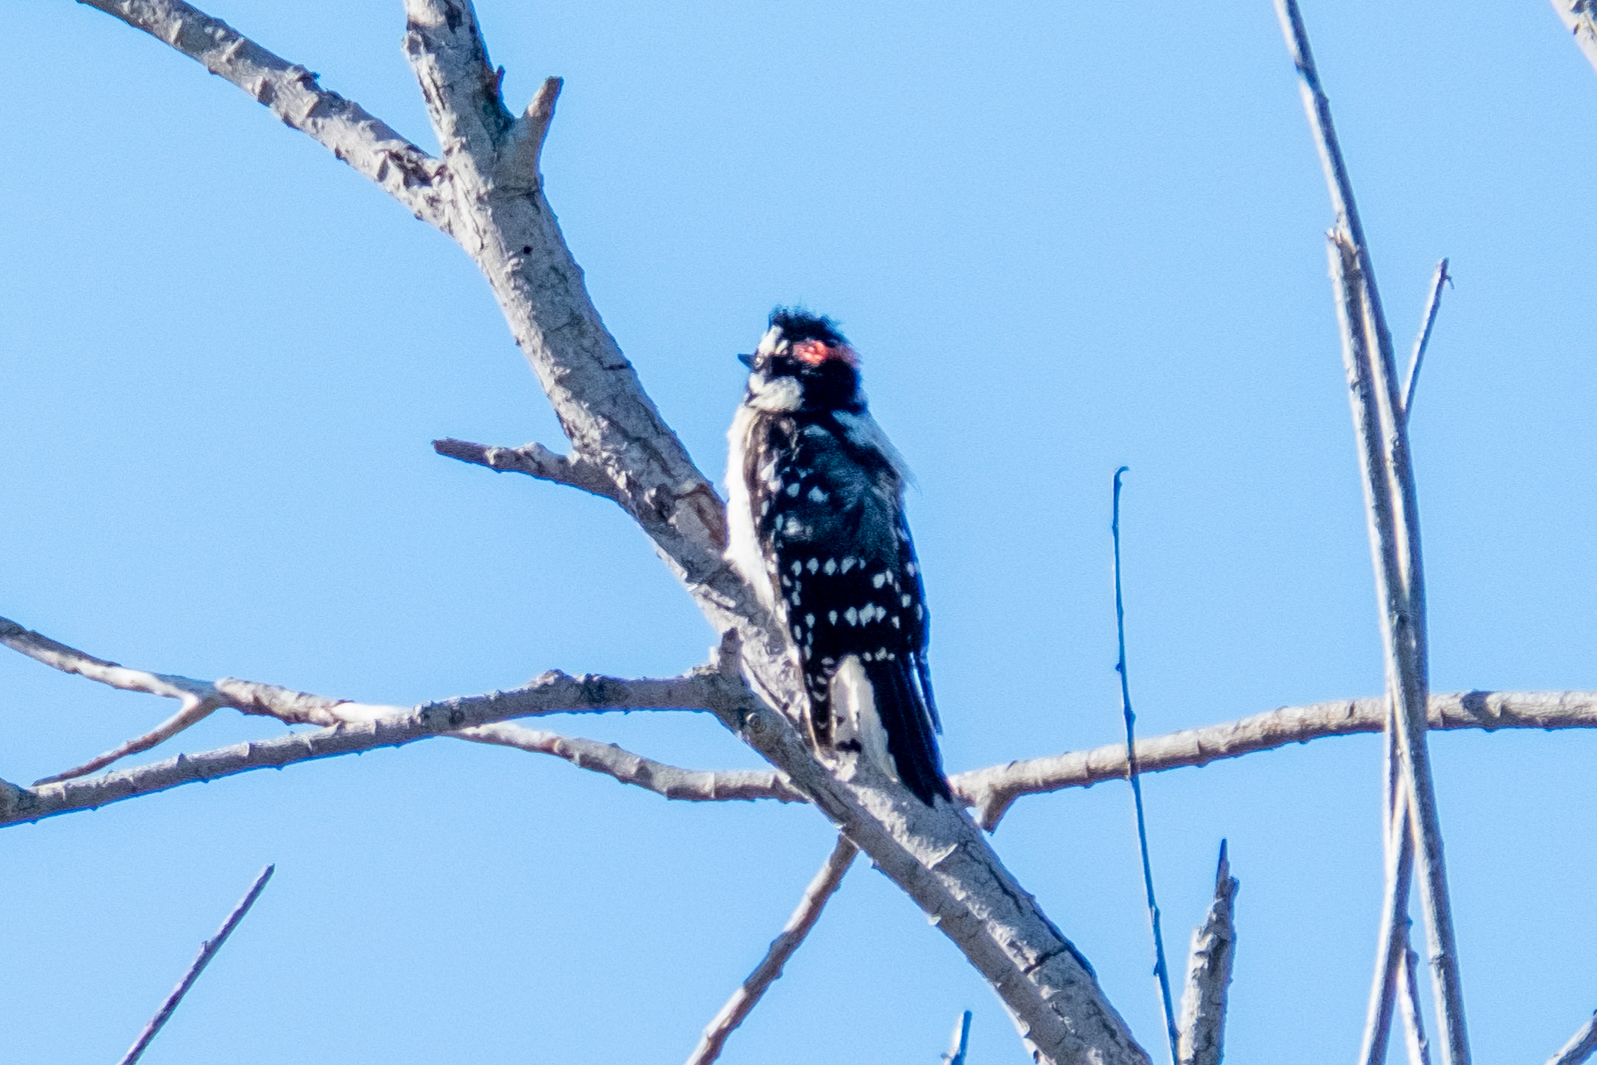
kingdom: Animalia
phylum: Chordata
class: Aves
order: Piciformes
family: Picidae
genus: Dryobates
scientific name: Dryobates pubescens
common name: Downy woodpecker
